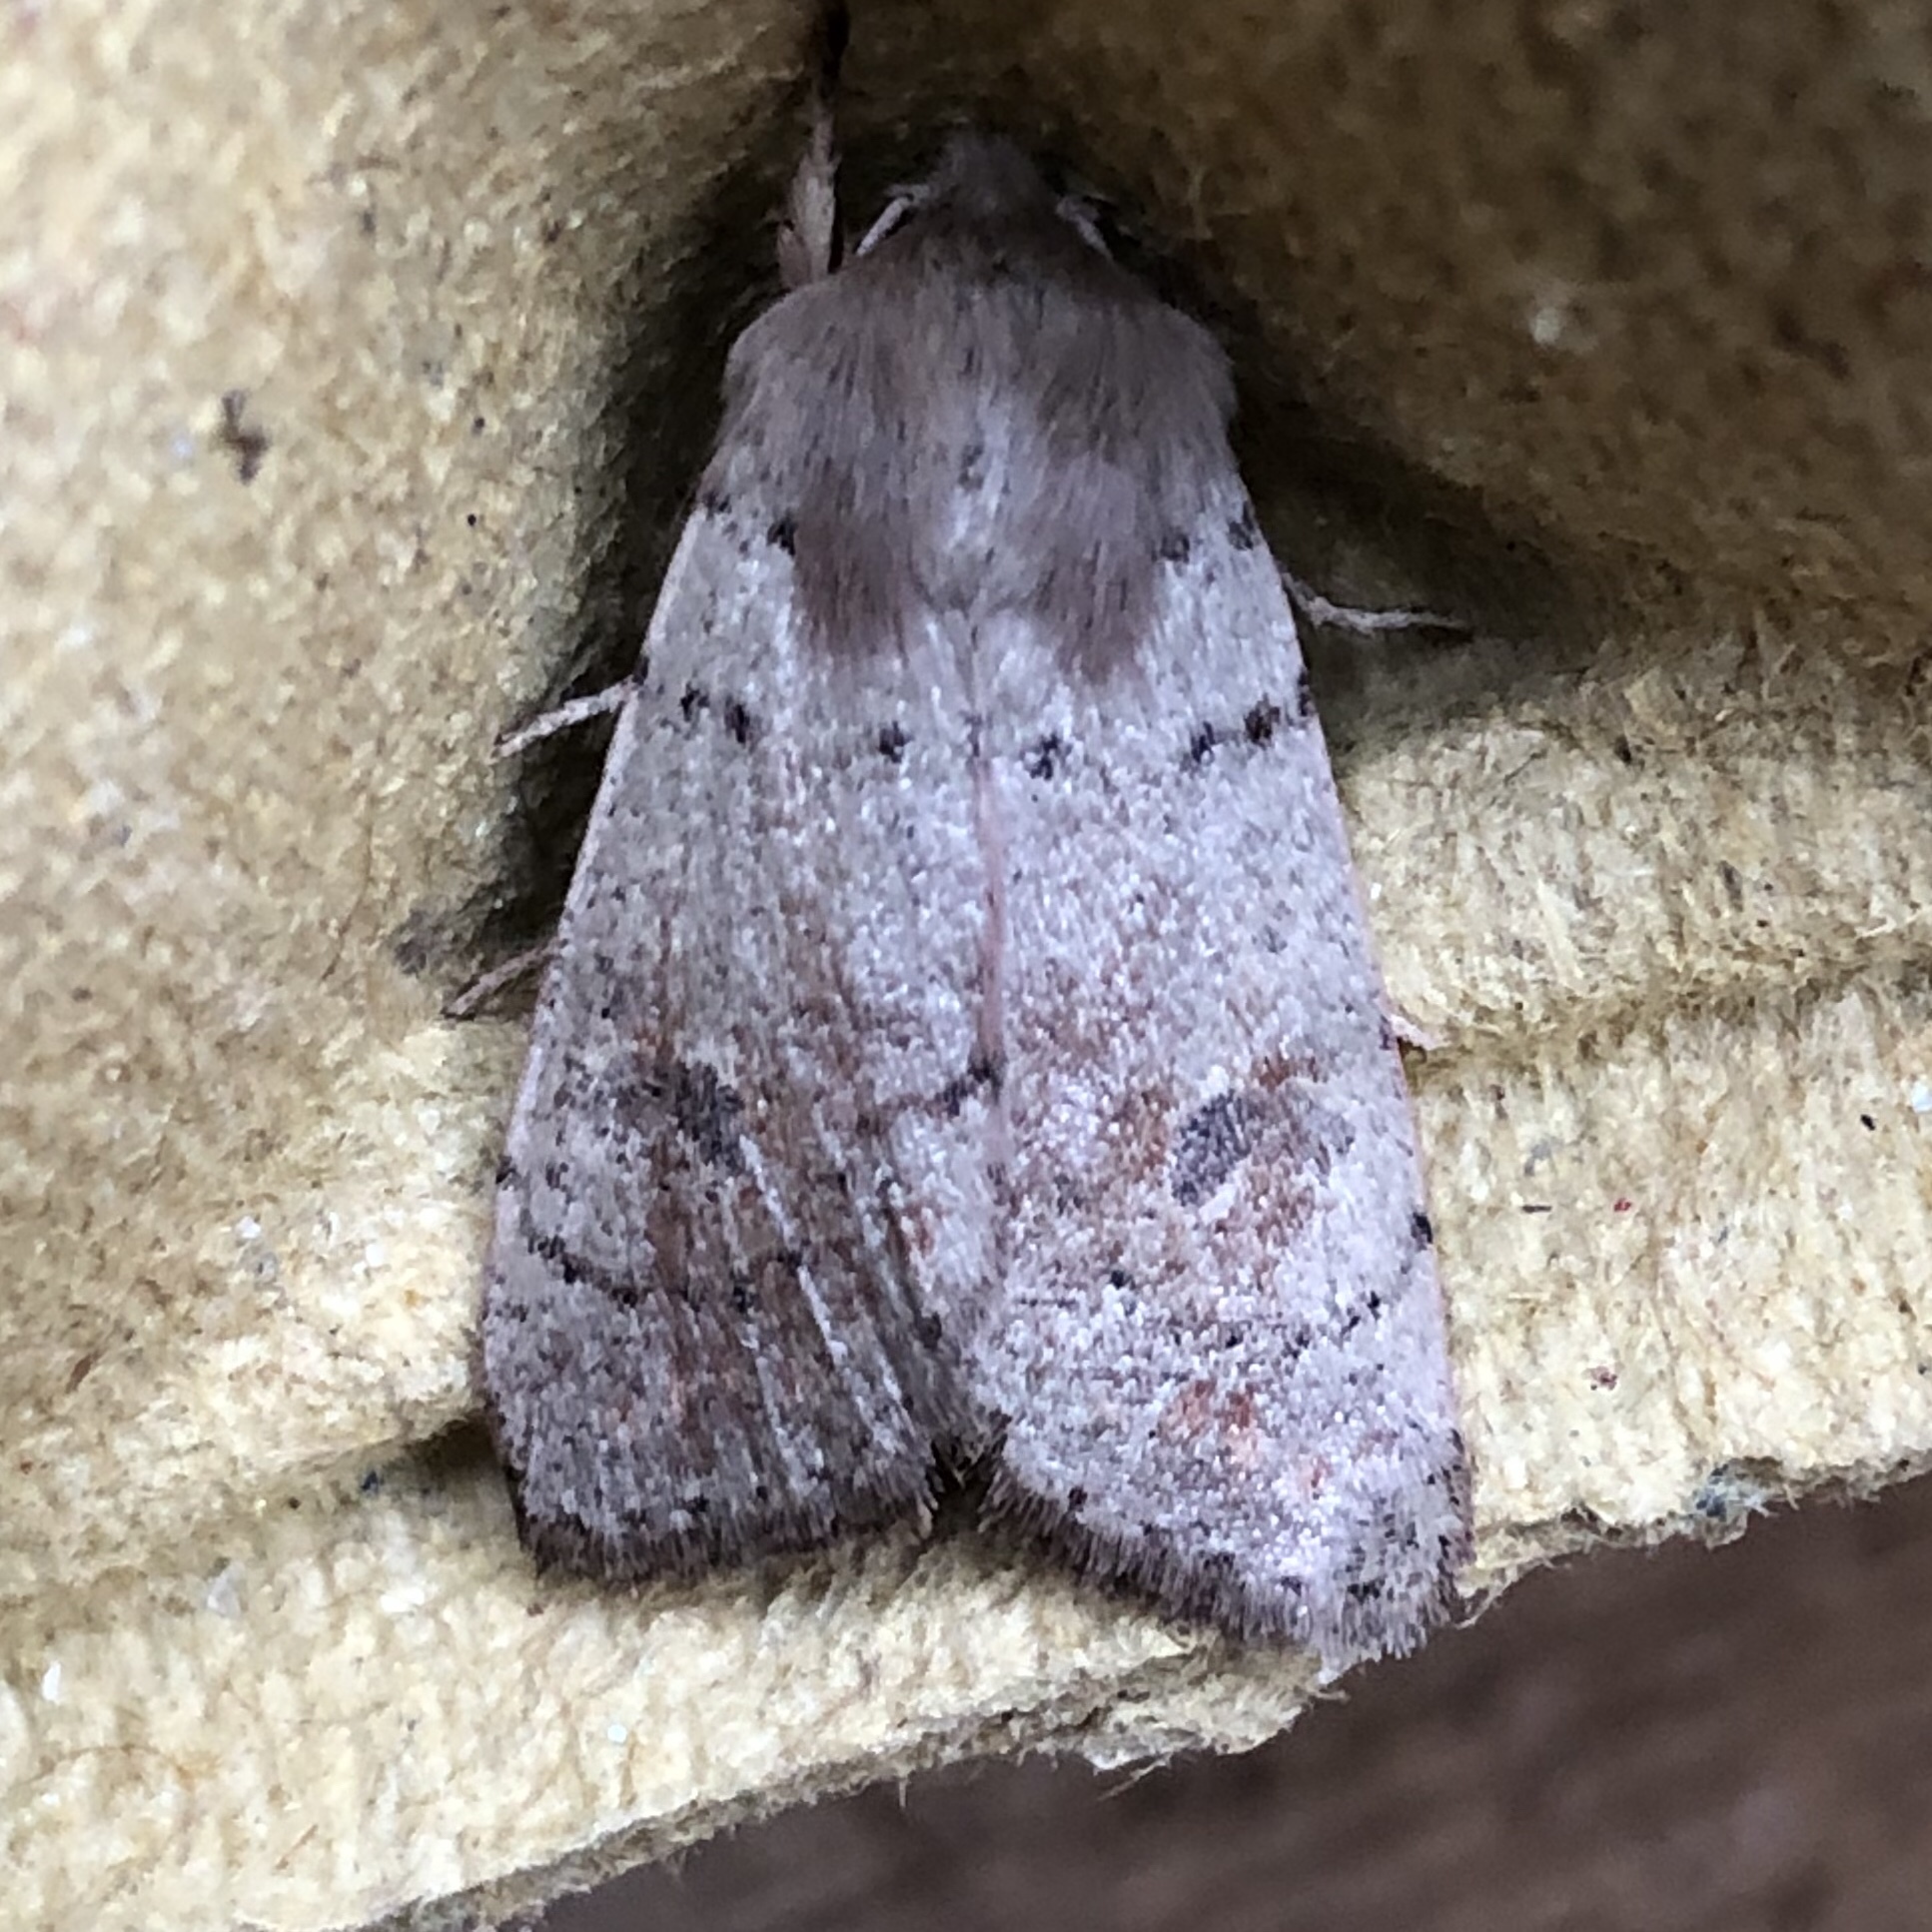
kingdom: Animalia
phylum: Arthropoda
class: Insecta
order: Lepidoptera
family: Noctuidae
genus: Orthosia
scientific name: Orthosia cruda
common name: Small quaker
